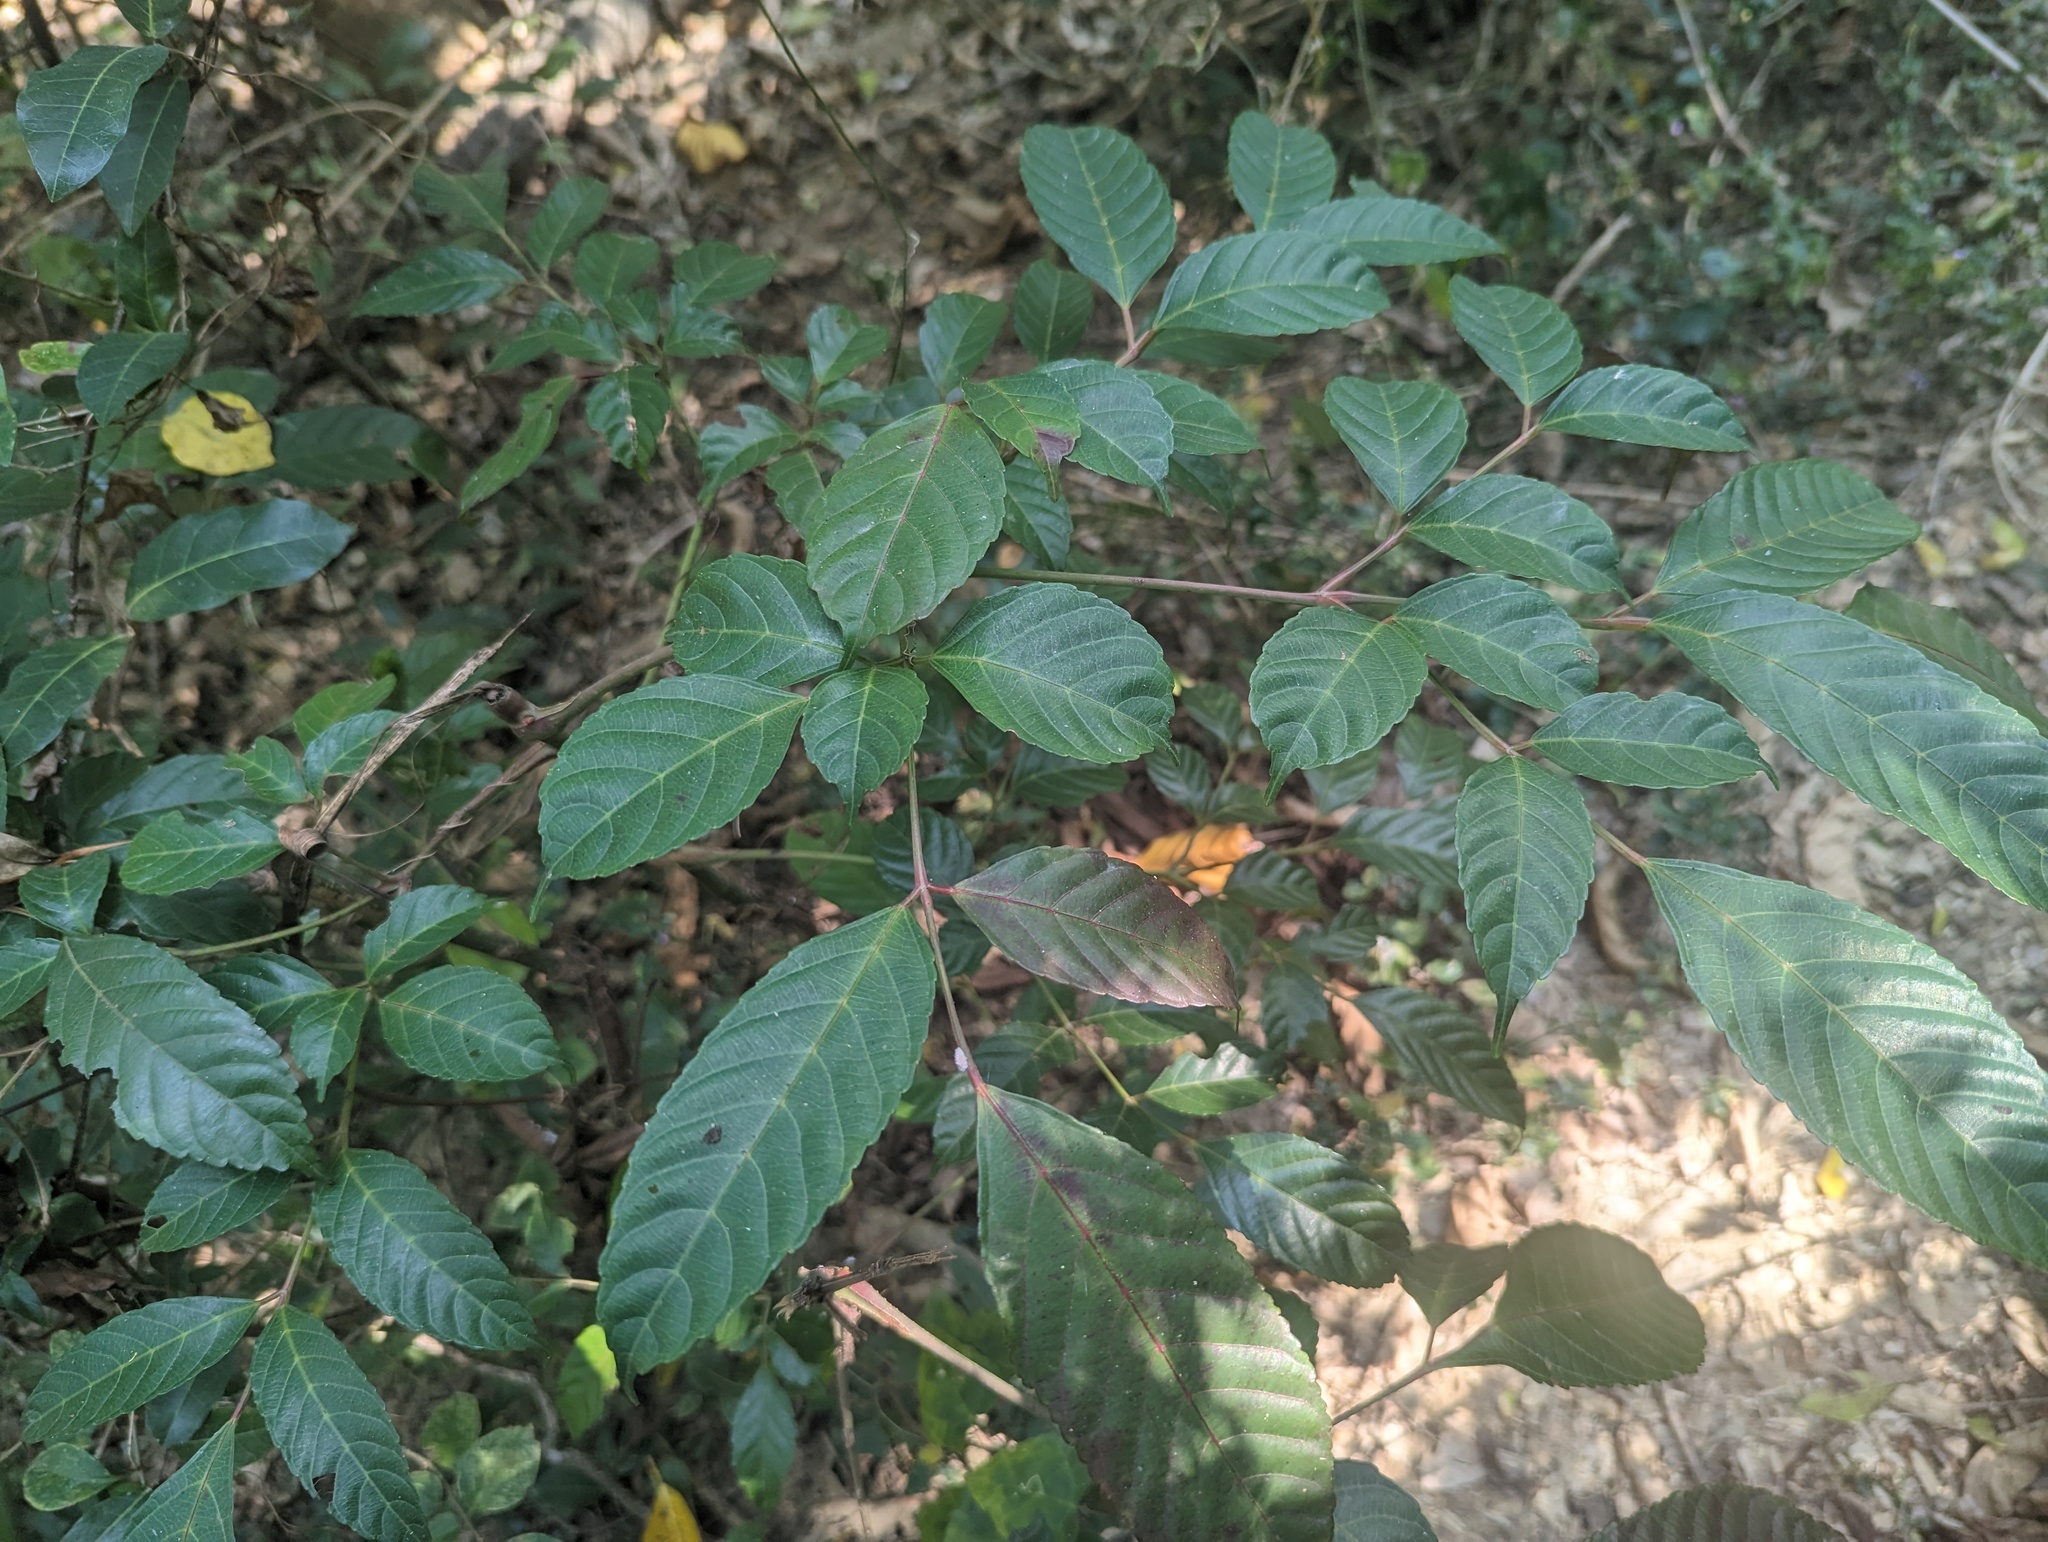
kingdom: Plantae
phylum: Tracheophyta
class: Magnoliopsida
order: Vitales
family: Vitaceae
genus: Leea
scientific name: Leea guineensis
